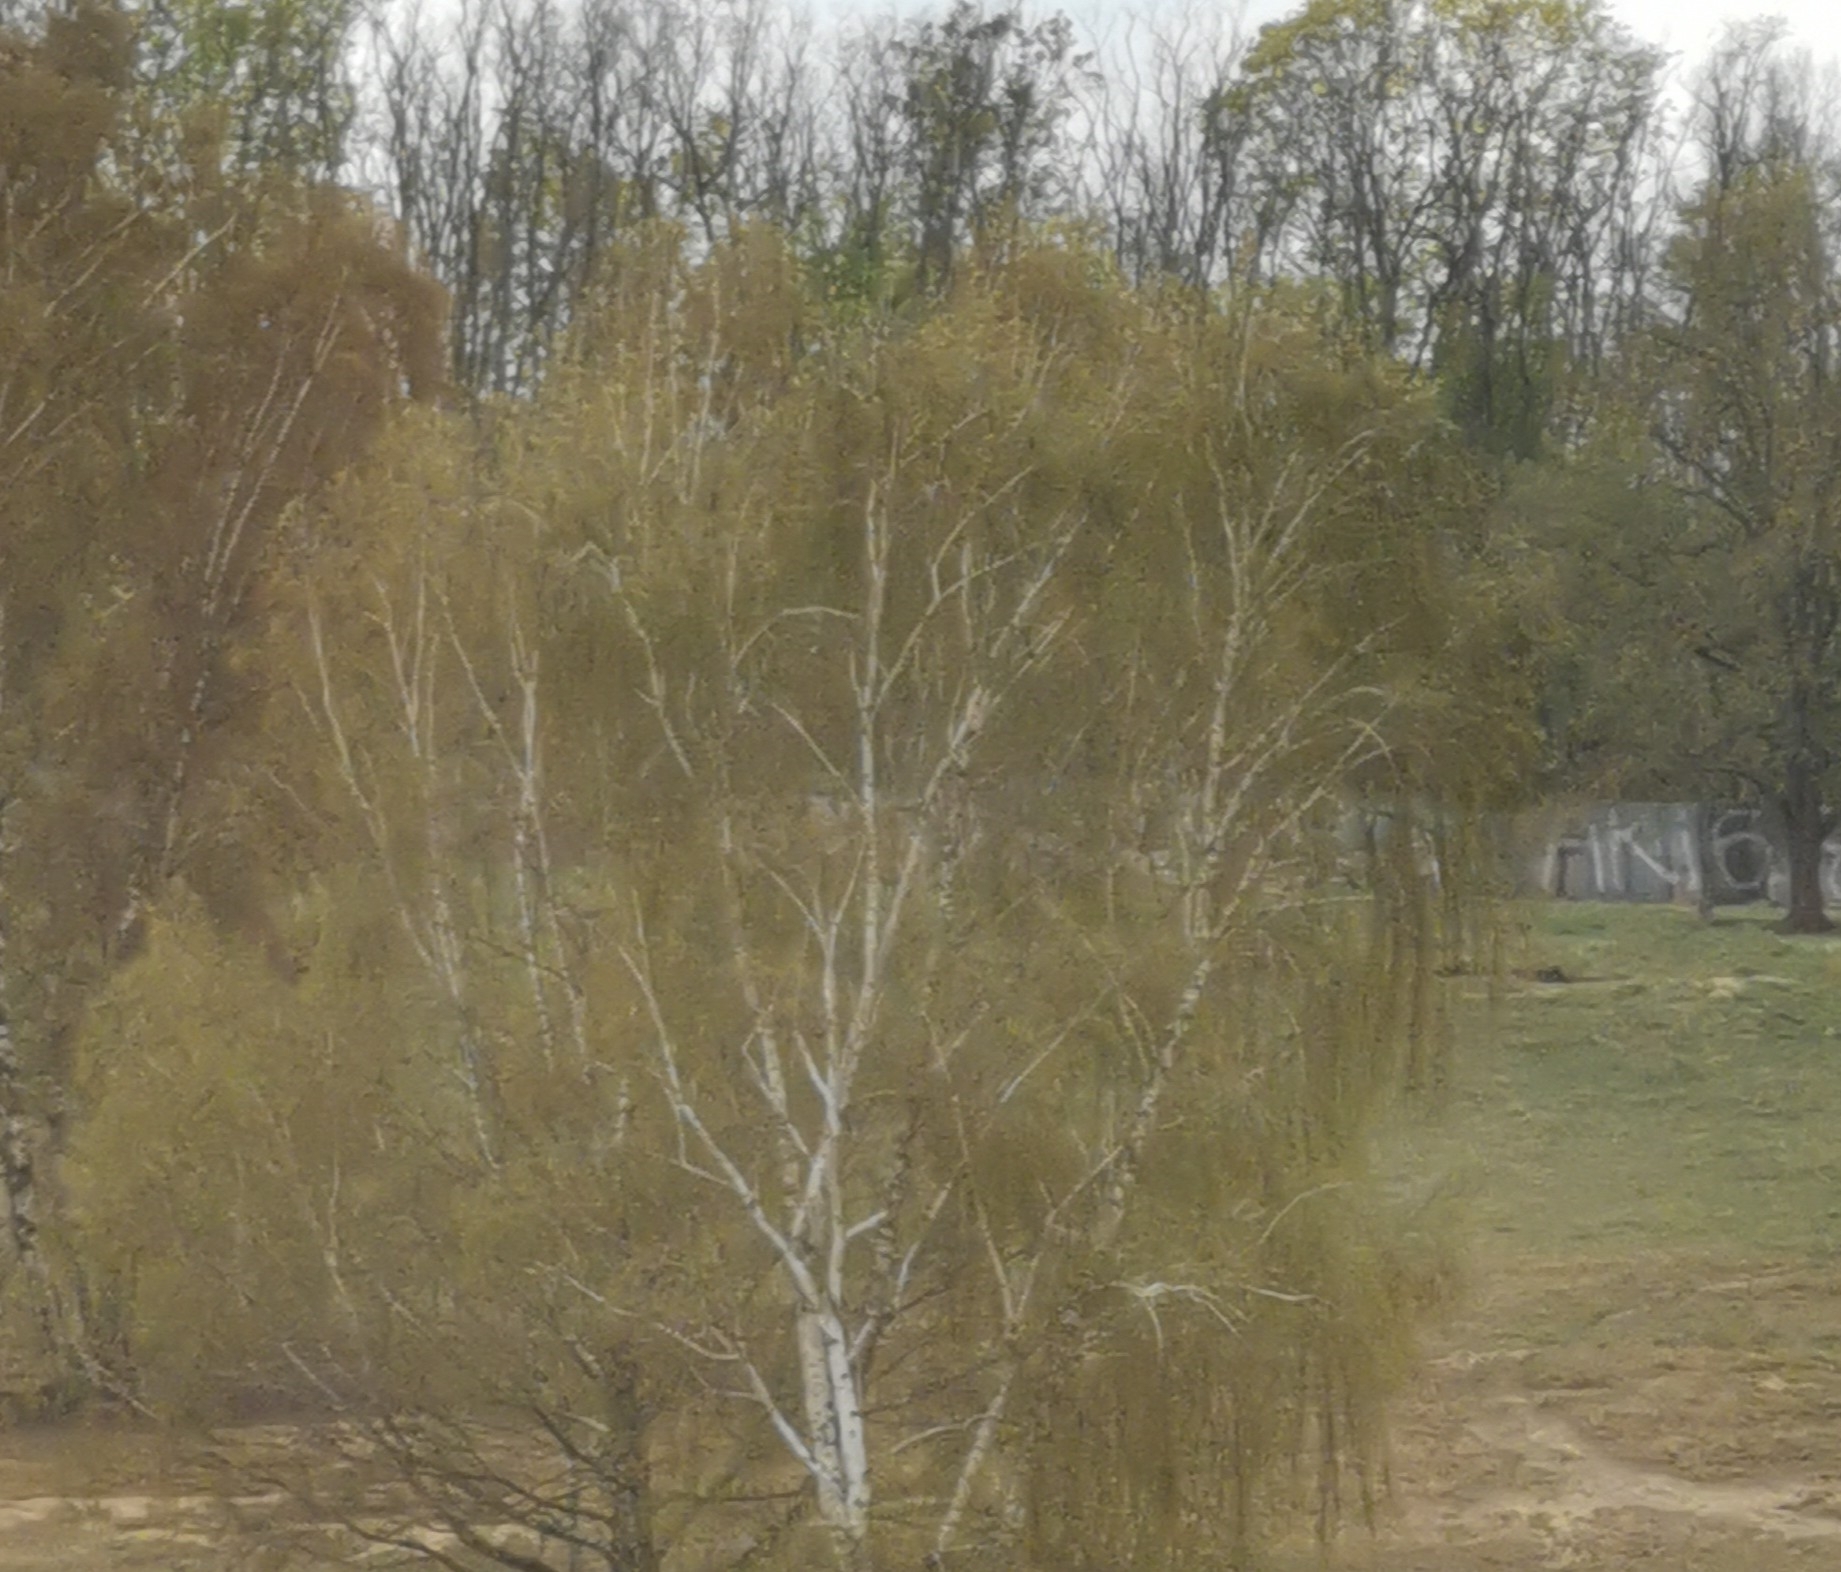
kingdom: Plantae
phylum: Tracheophyta
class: Magnoliopsida
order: Fagales
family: Betulaceae
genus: Betula
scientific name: Betula pendula
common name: Silver birch
